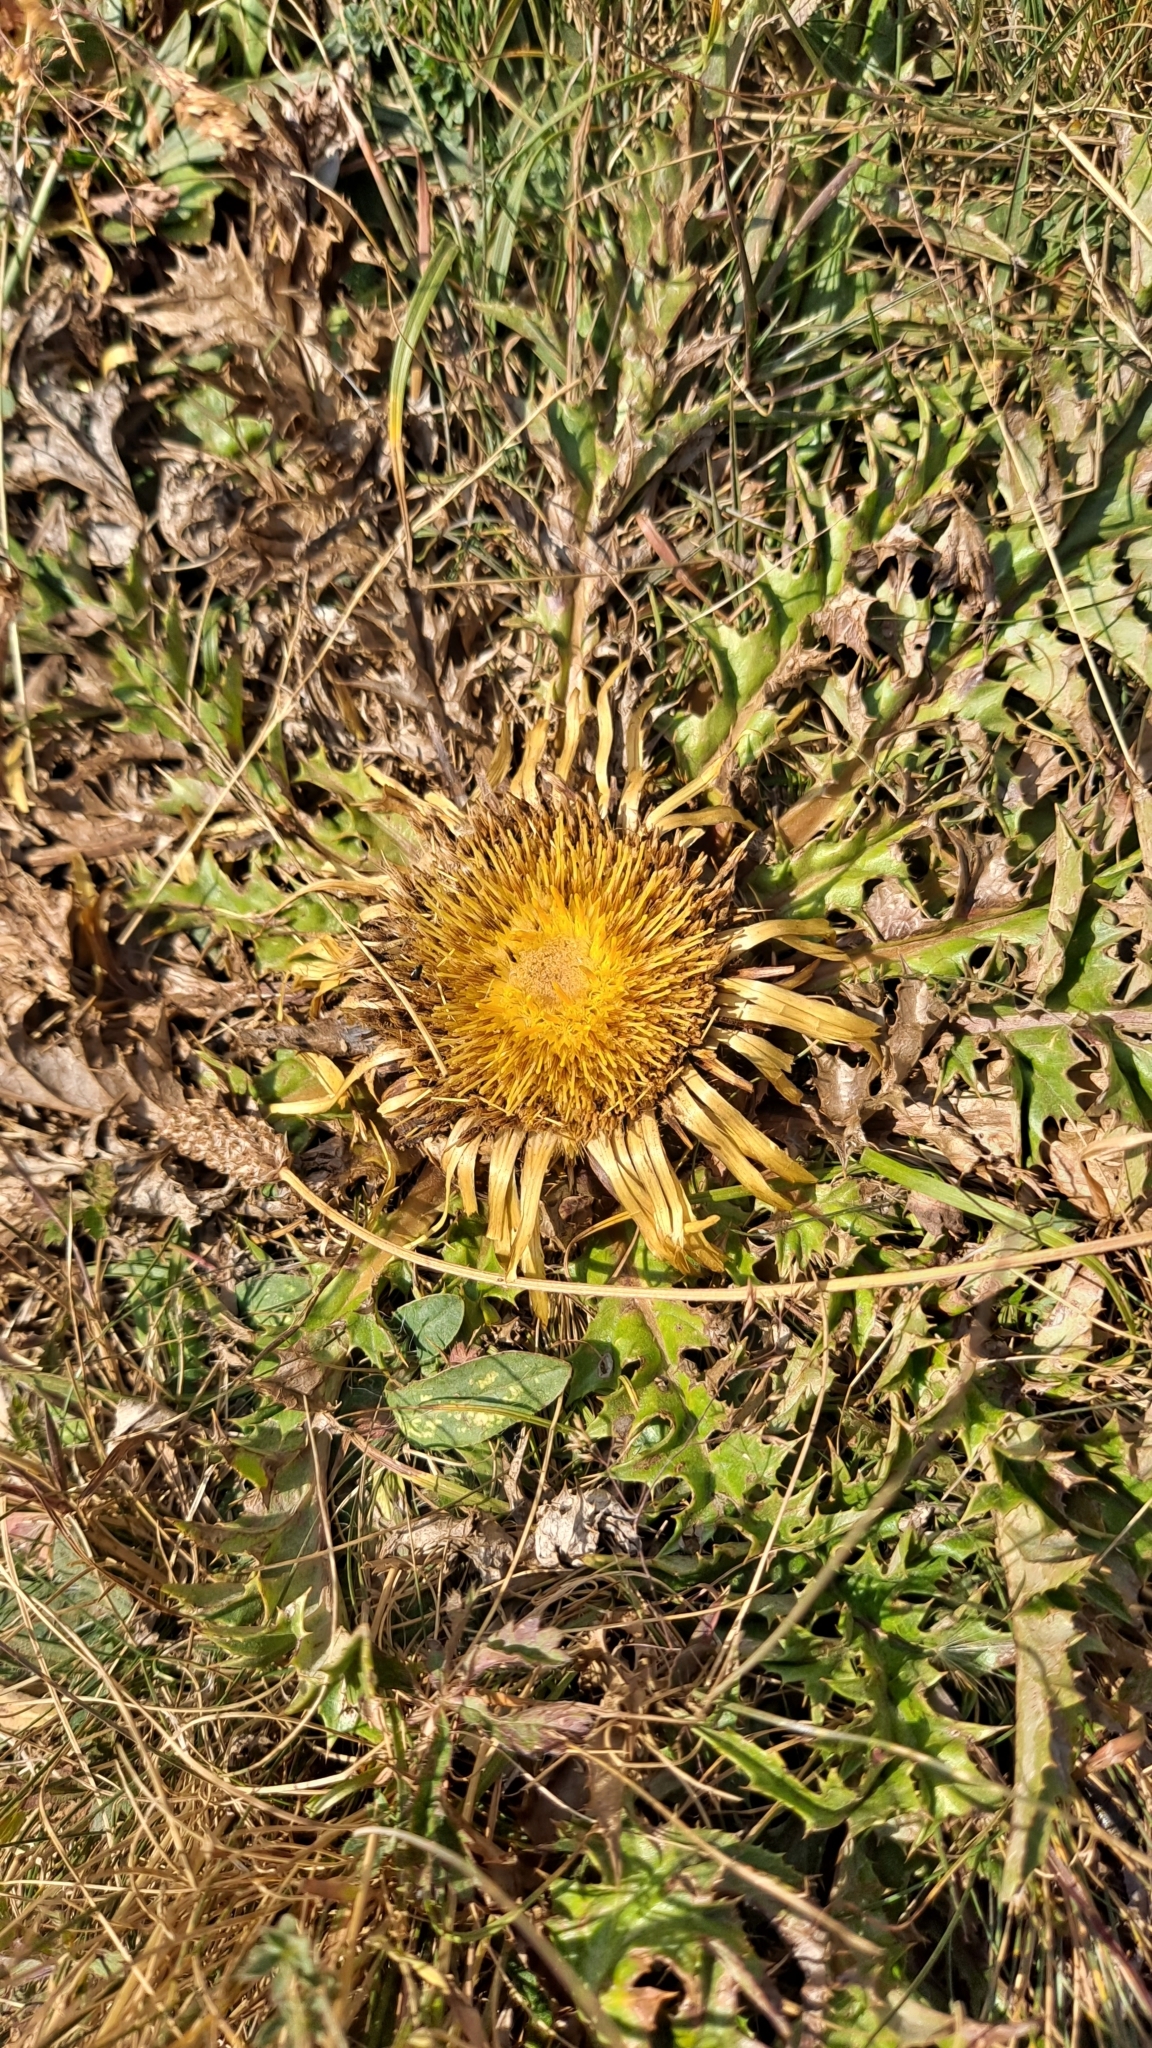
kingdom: Plantae
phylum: Tracheophyta
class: Magnoliopsida
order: Asterales
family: Asteraceae
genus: Carlina
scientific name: Carlina acanthifolia
